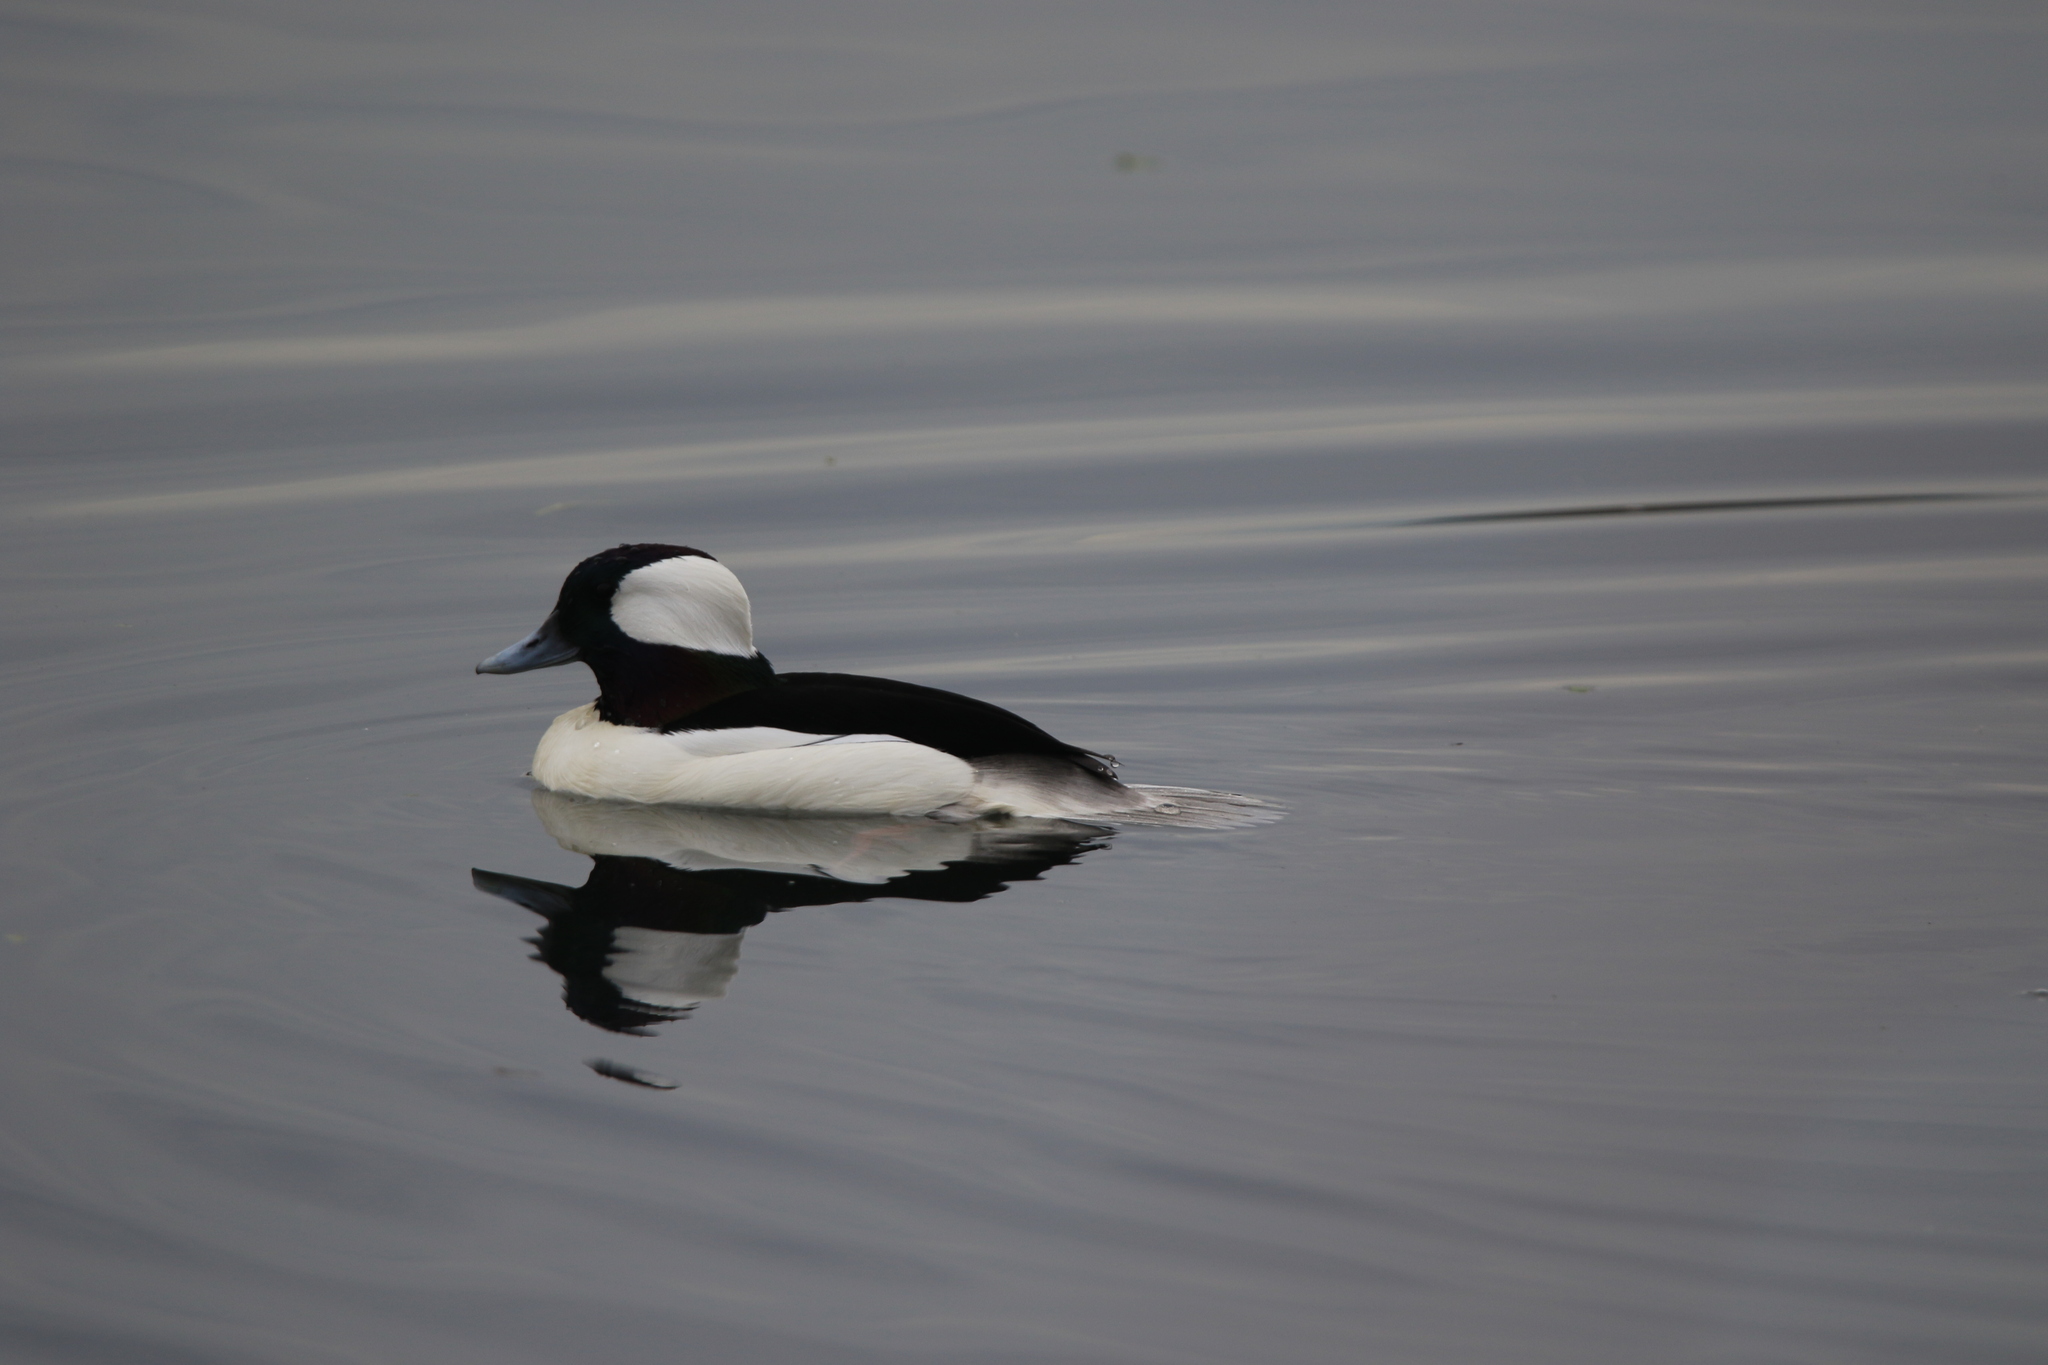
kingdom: Animalia
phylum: Chordata
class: Aves
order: Anseriformes
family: Anatidae
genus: Bucephala
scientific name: Bucephala albeola
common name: Bufflehead
